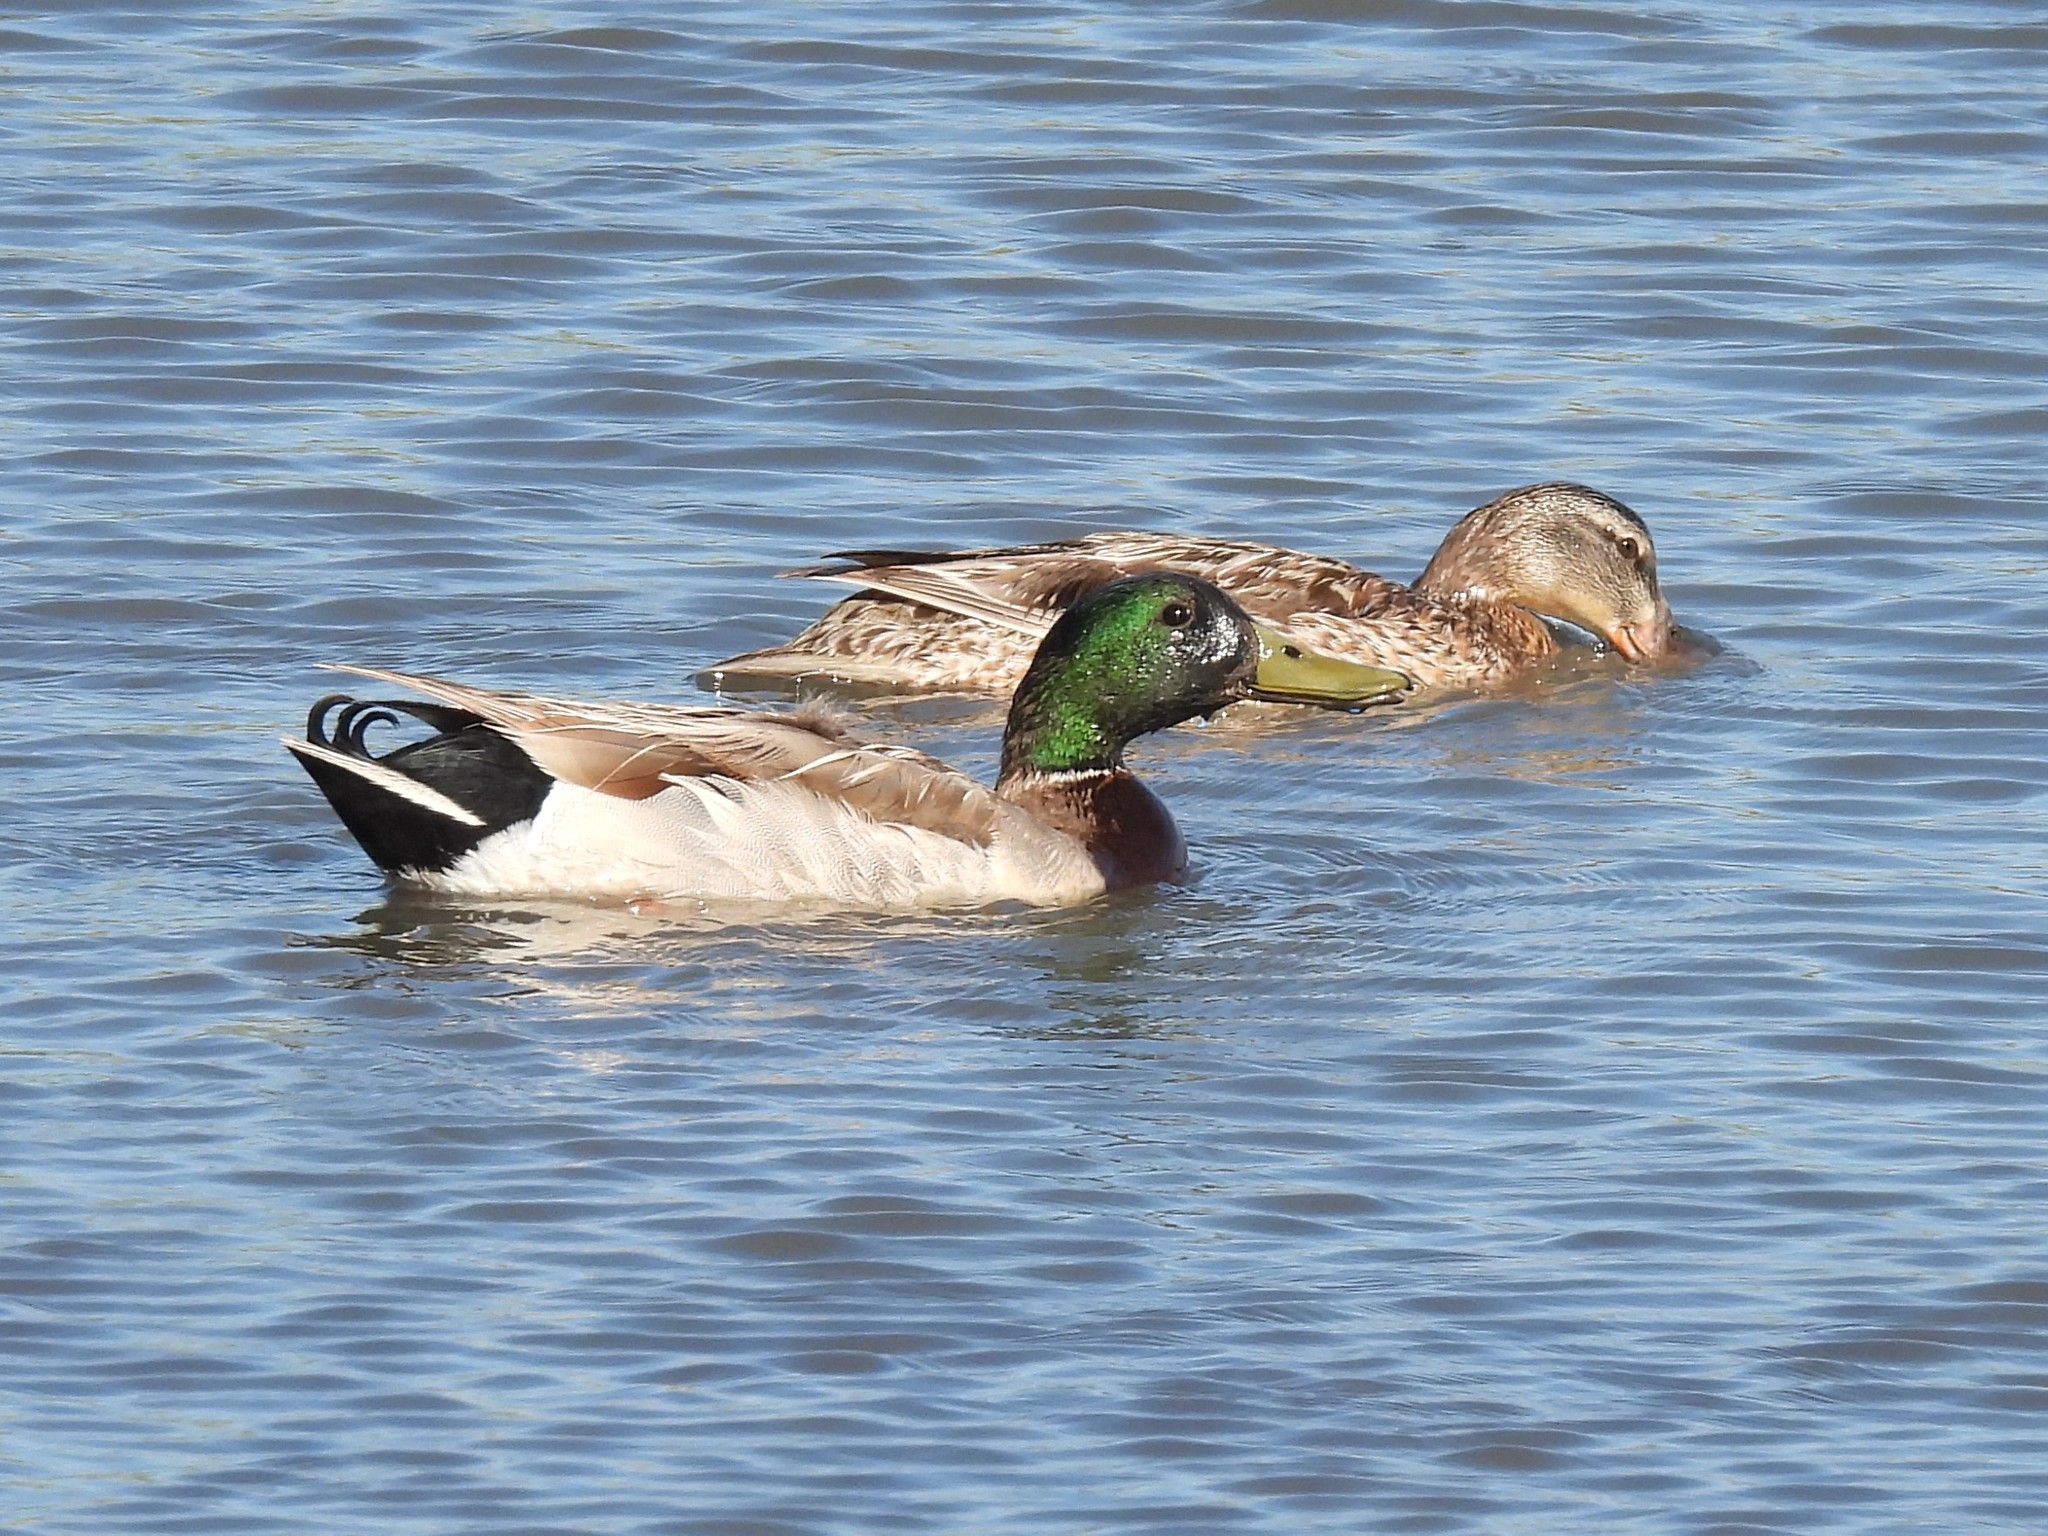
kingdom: Animalia
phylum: Chordata
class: Aves
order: Anseriformes
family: Anatidae
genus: Anas
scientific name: Anas platyrhynchos
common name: Mallard
